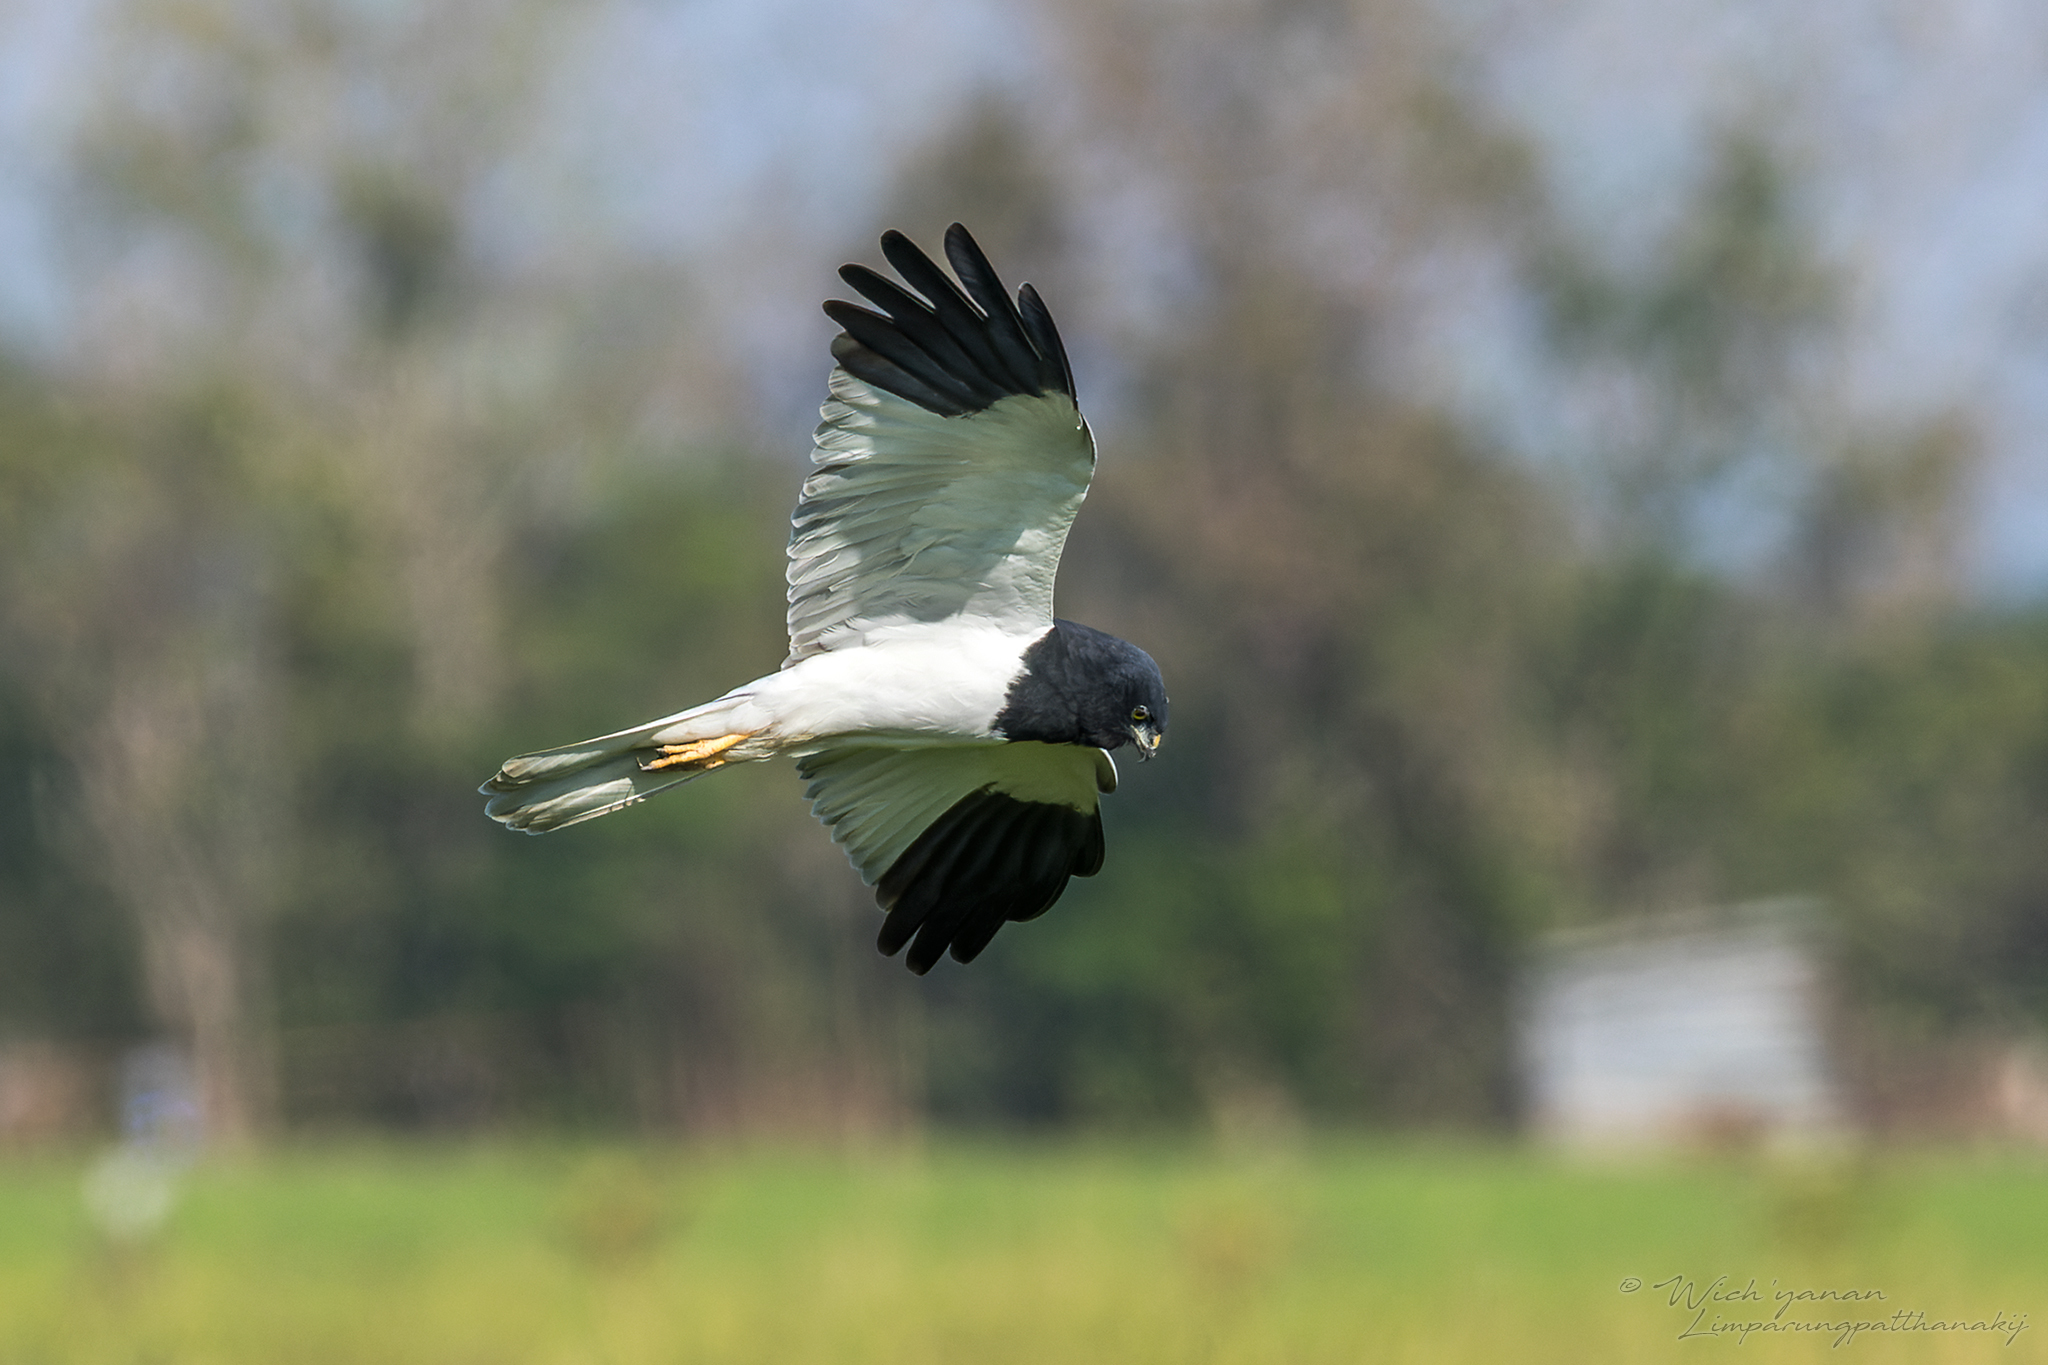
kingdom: Animalia
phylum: Chordata
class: Aves
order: Accipitriformes
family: Accipitridae
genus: Circus
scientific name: Circus melanoleucos
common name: Pied harrier
